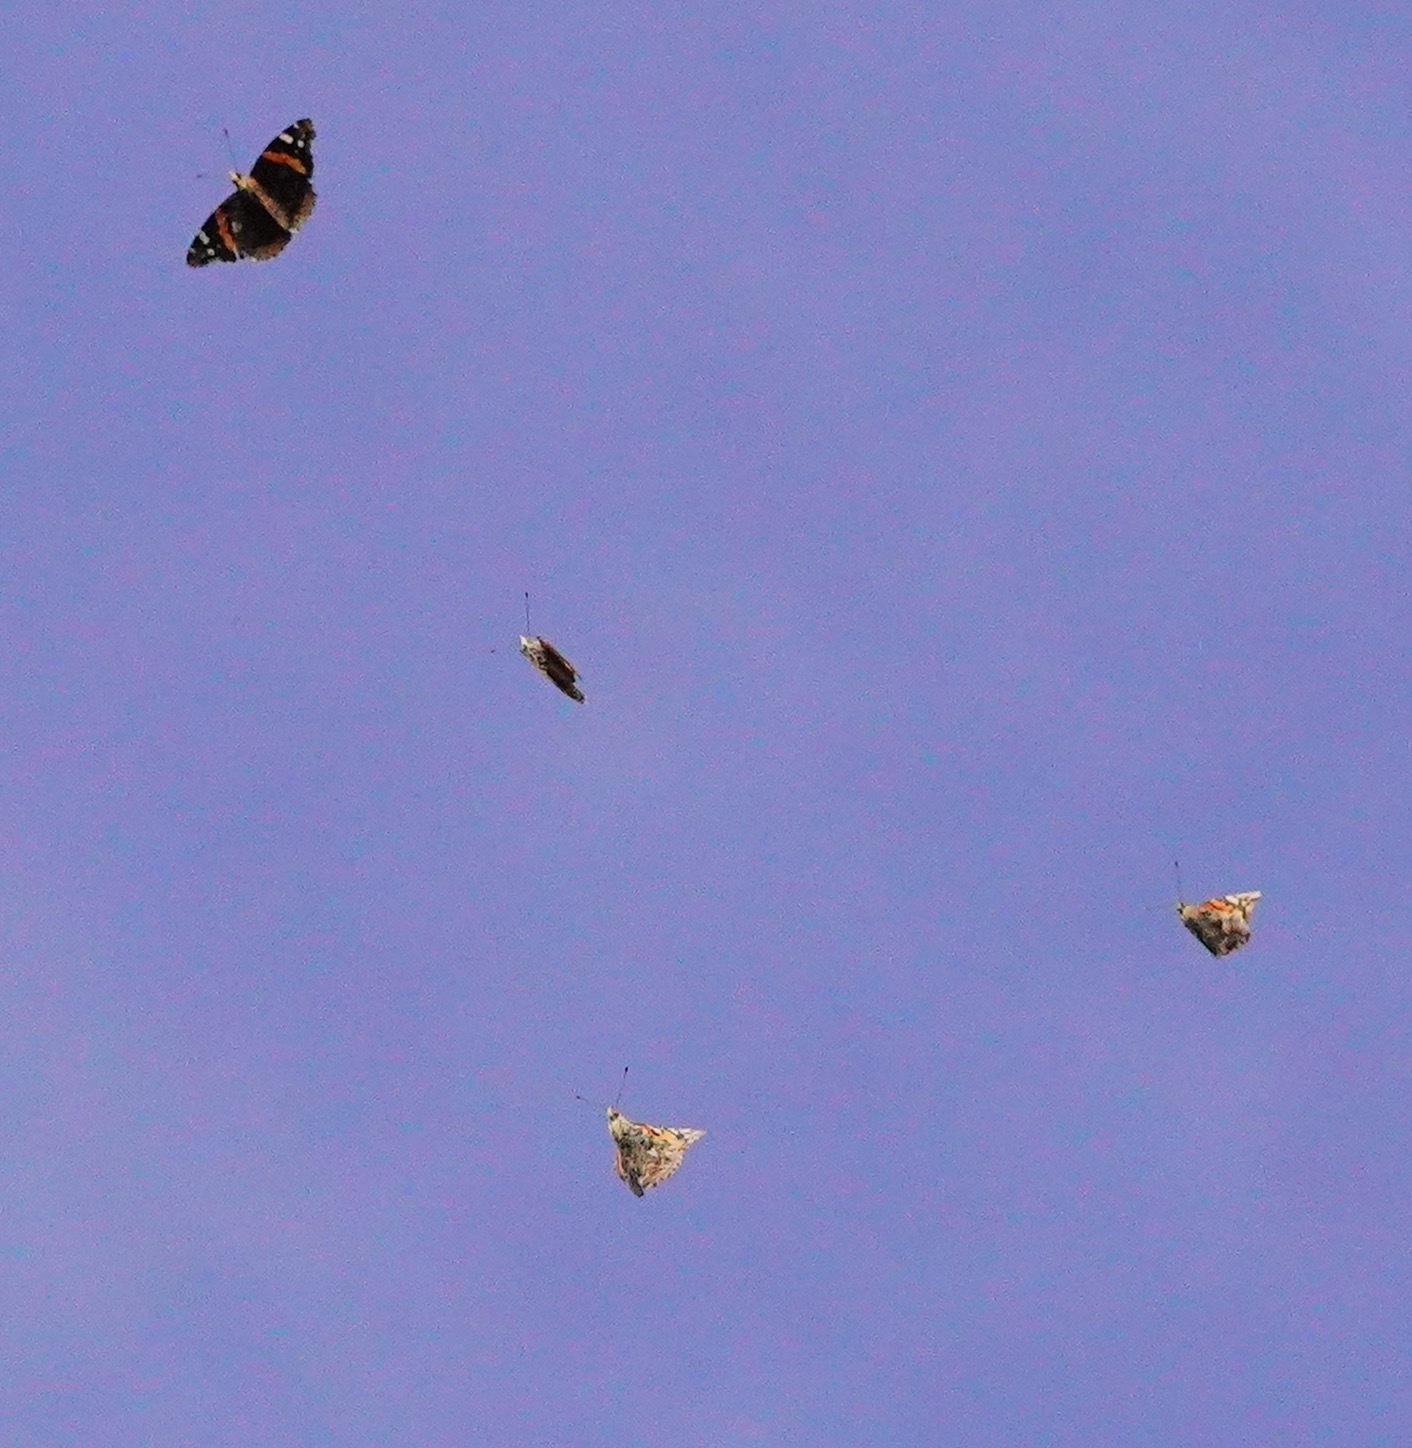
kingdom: Animalia
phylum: Arthropoda
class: Insecta
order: Lepidoptera
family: Nymphalidae
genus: Vanessa
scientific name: Vanessa atalanta
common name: Red admiral
